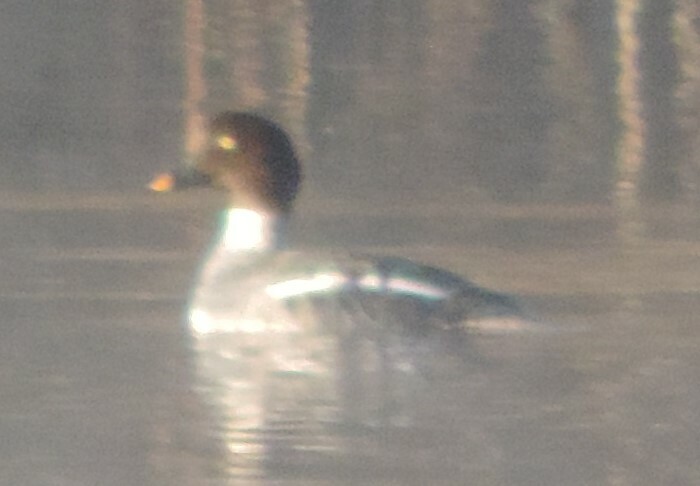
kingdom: Animalia
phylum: Chordata
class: Aves
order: Anseriformes
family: Anatidae
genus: Bucephala
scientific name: Bucephala clangula
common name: Common goldeneye
